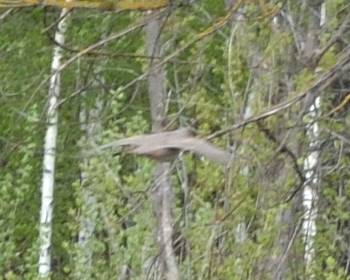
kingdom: Animalia
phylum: Chordata
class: Aves
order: Galliformes
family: Phasianidae
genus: Perdix
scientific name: Perdix perdix
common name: Grey partridge
